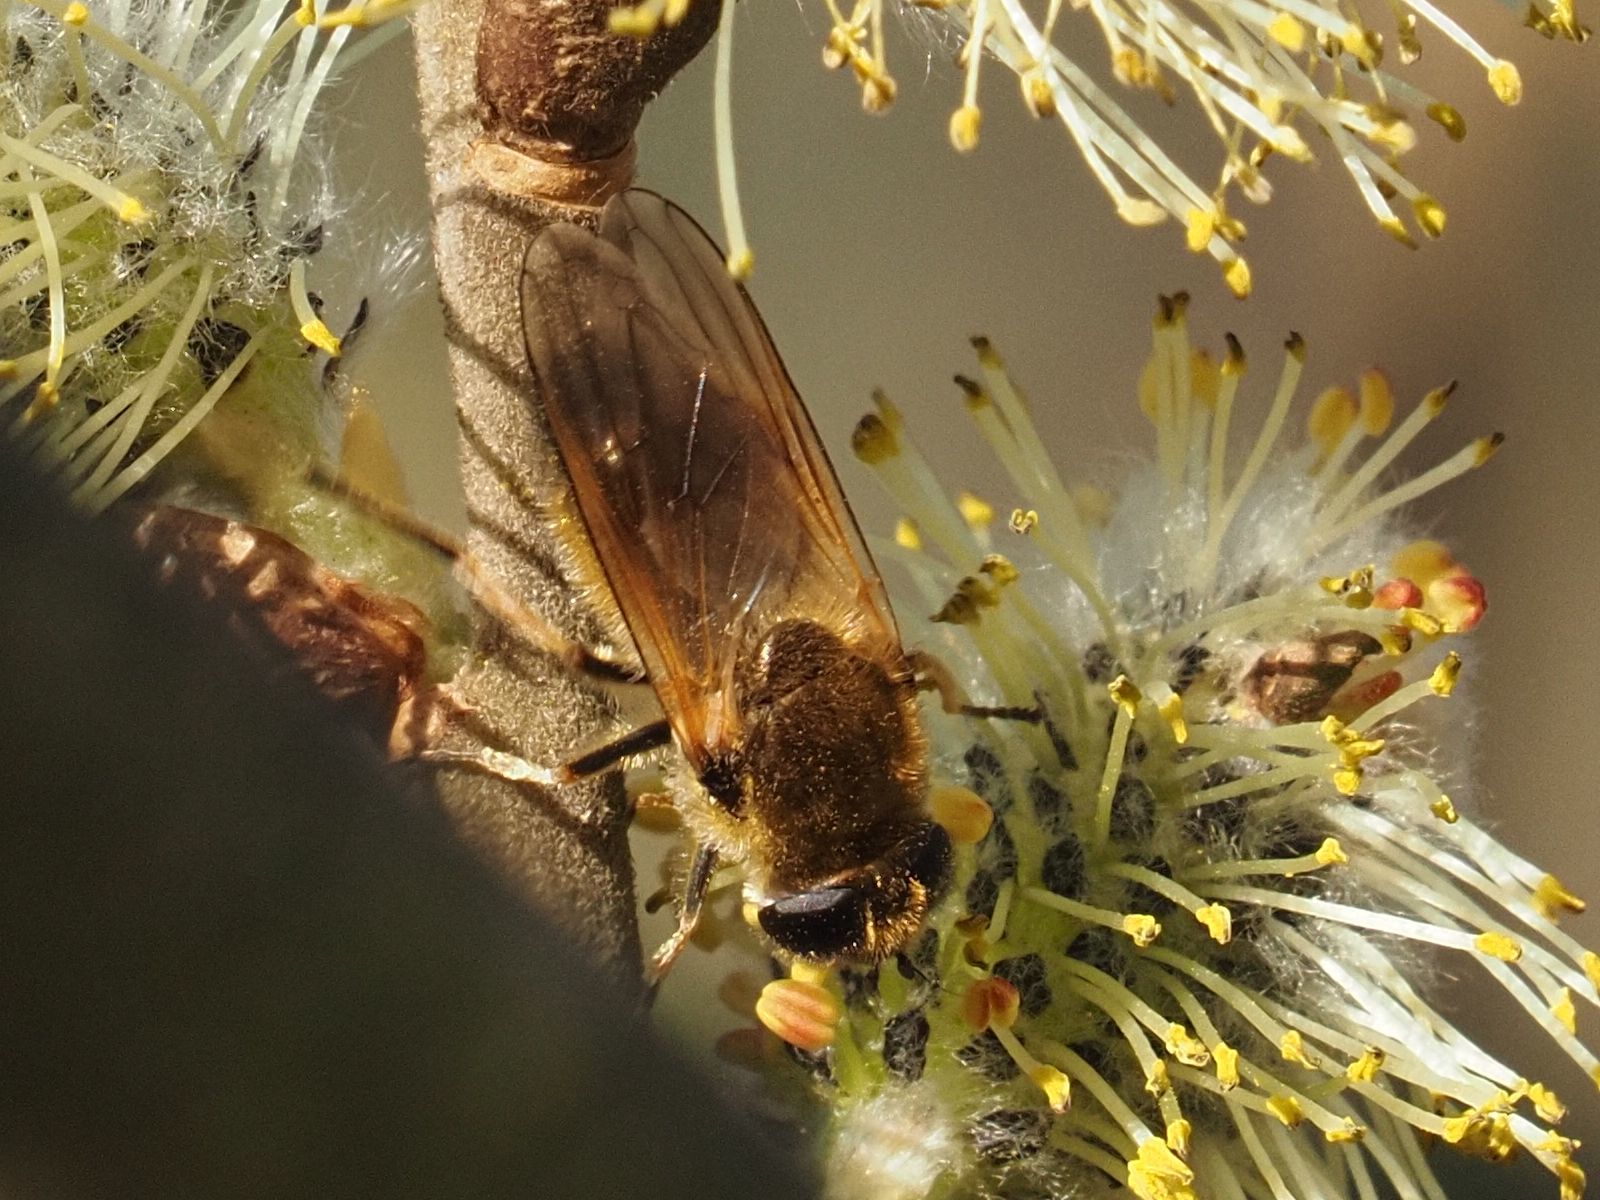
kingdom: Animalia
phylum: Arthropoda
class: Insecta
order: Diptera
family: Syrphidae
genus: Cheilosia
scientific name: Cheilosia corydon
